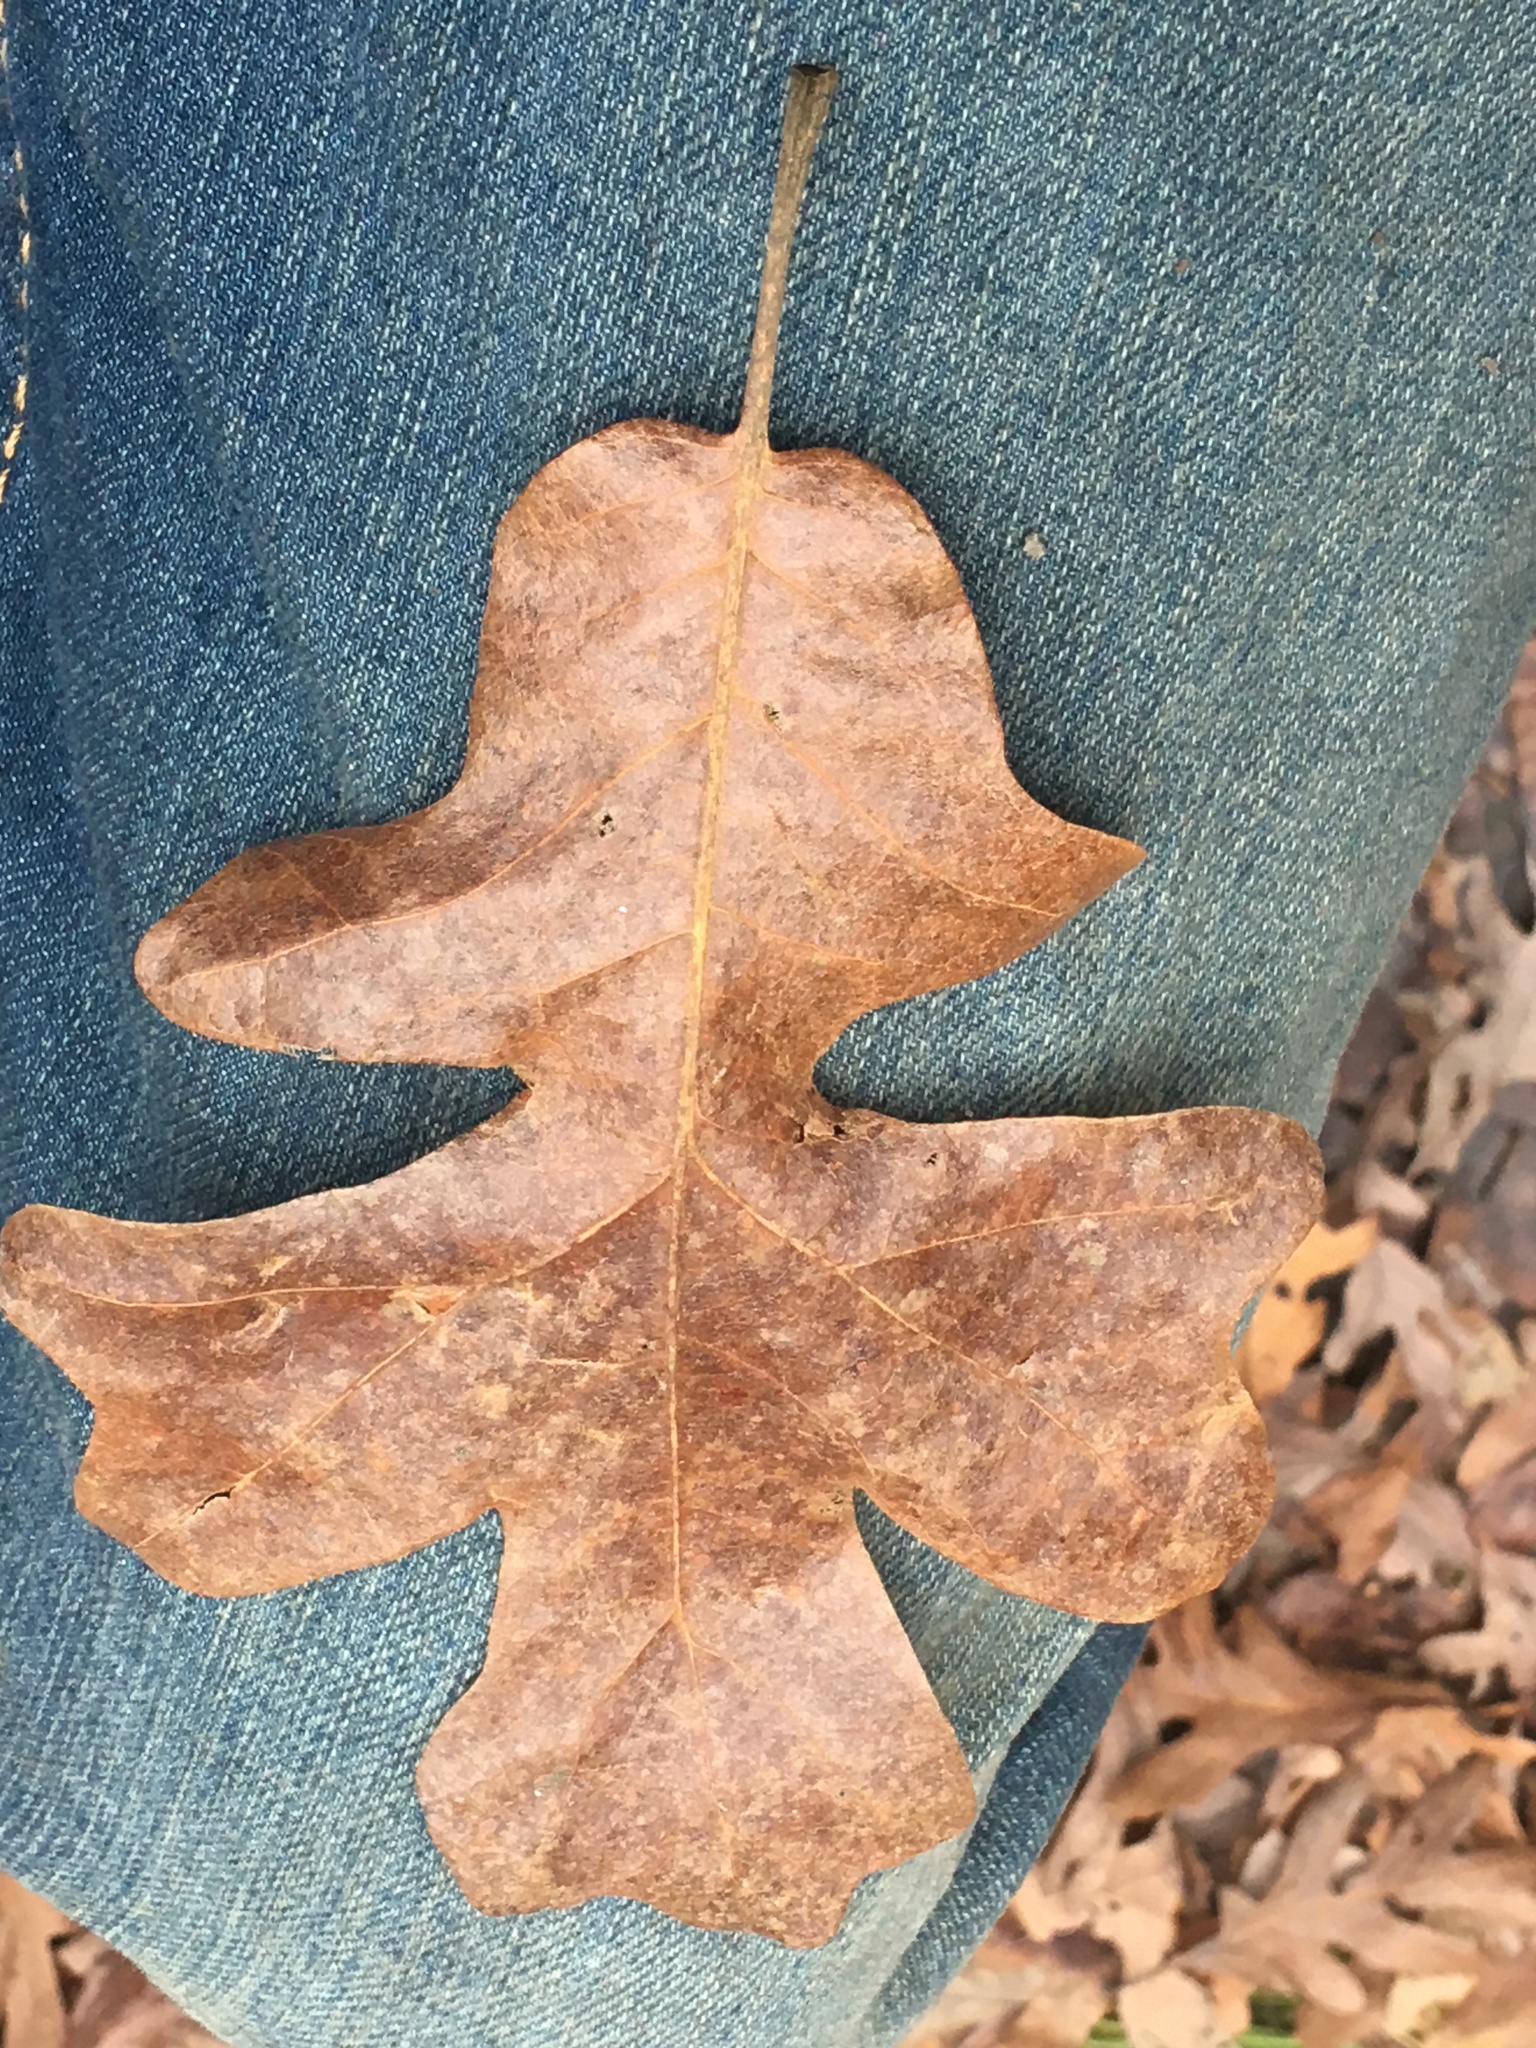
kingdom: Plantae
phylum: Tracheophyta
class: Magnoliopsida
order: Fagales
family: Fagaceae
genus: Quercus
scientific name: Quercus stellata
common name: Post oak
